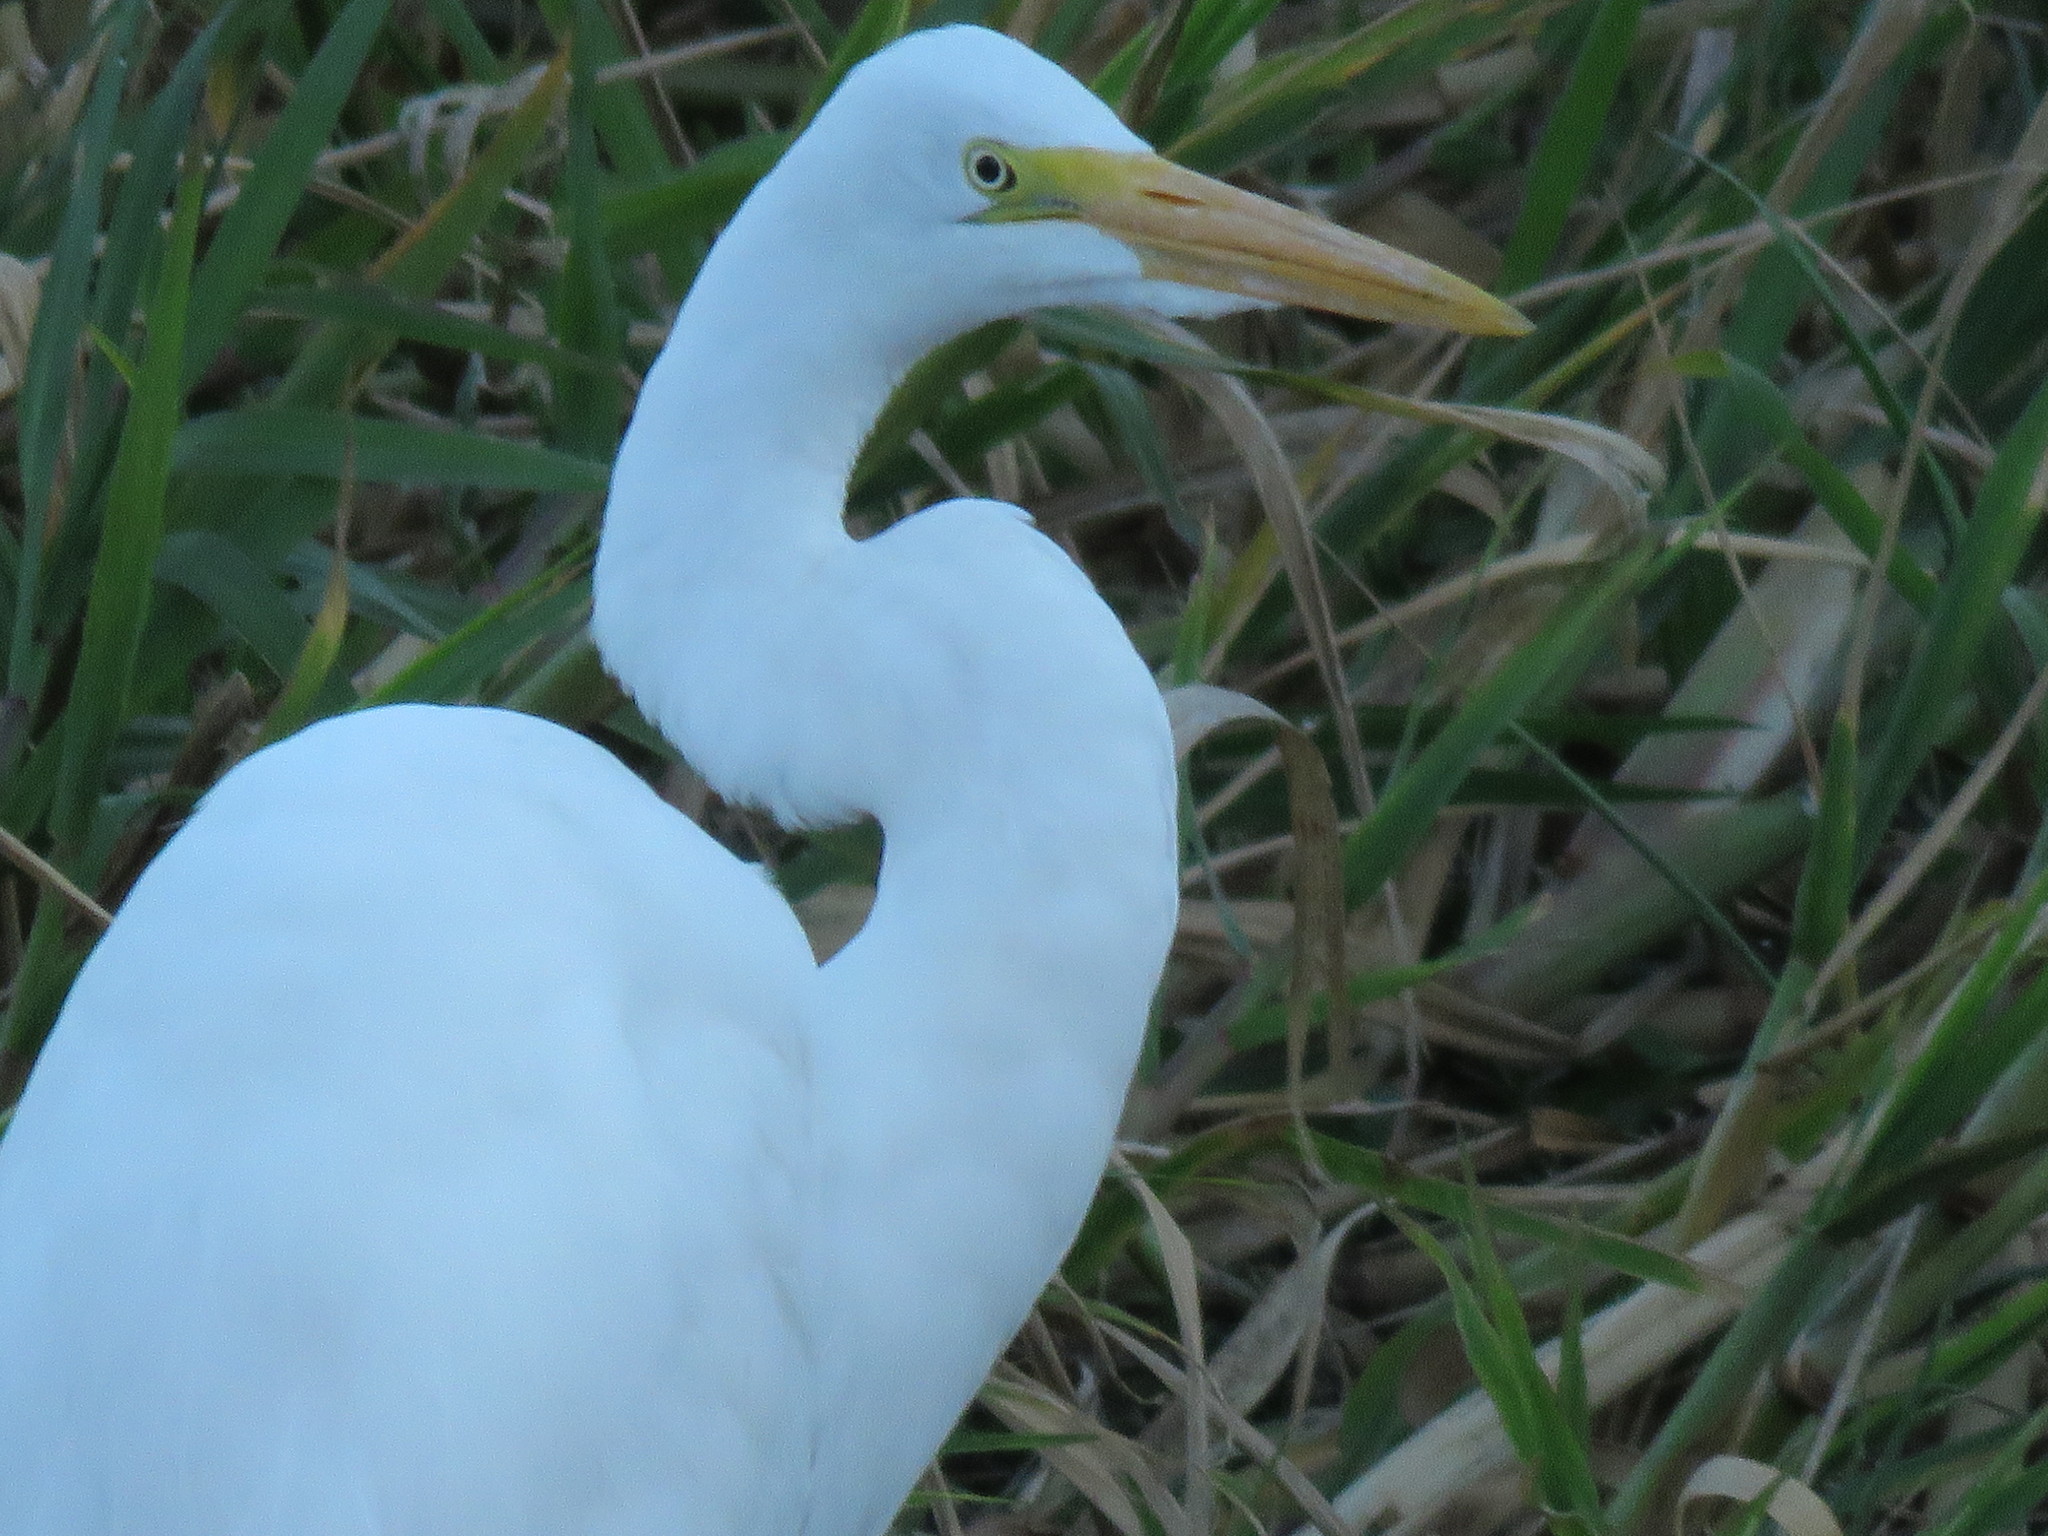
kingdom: Animalia
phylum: Chordata
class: Aves
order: Pelecaniformes
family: Ardeidae
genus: Ardea
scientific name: Ardea alba
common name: Great egret
